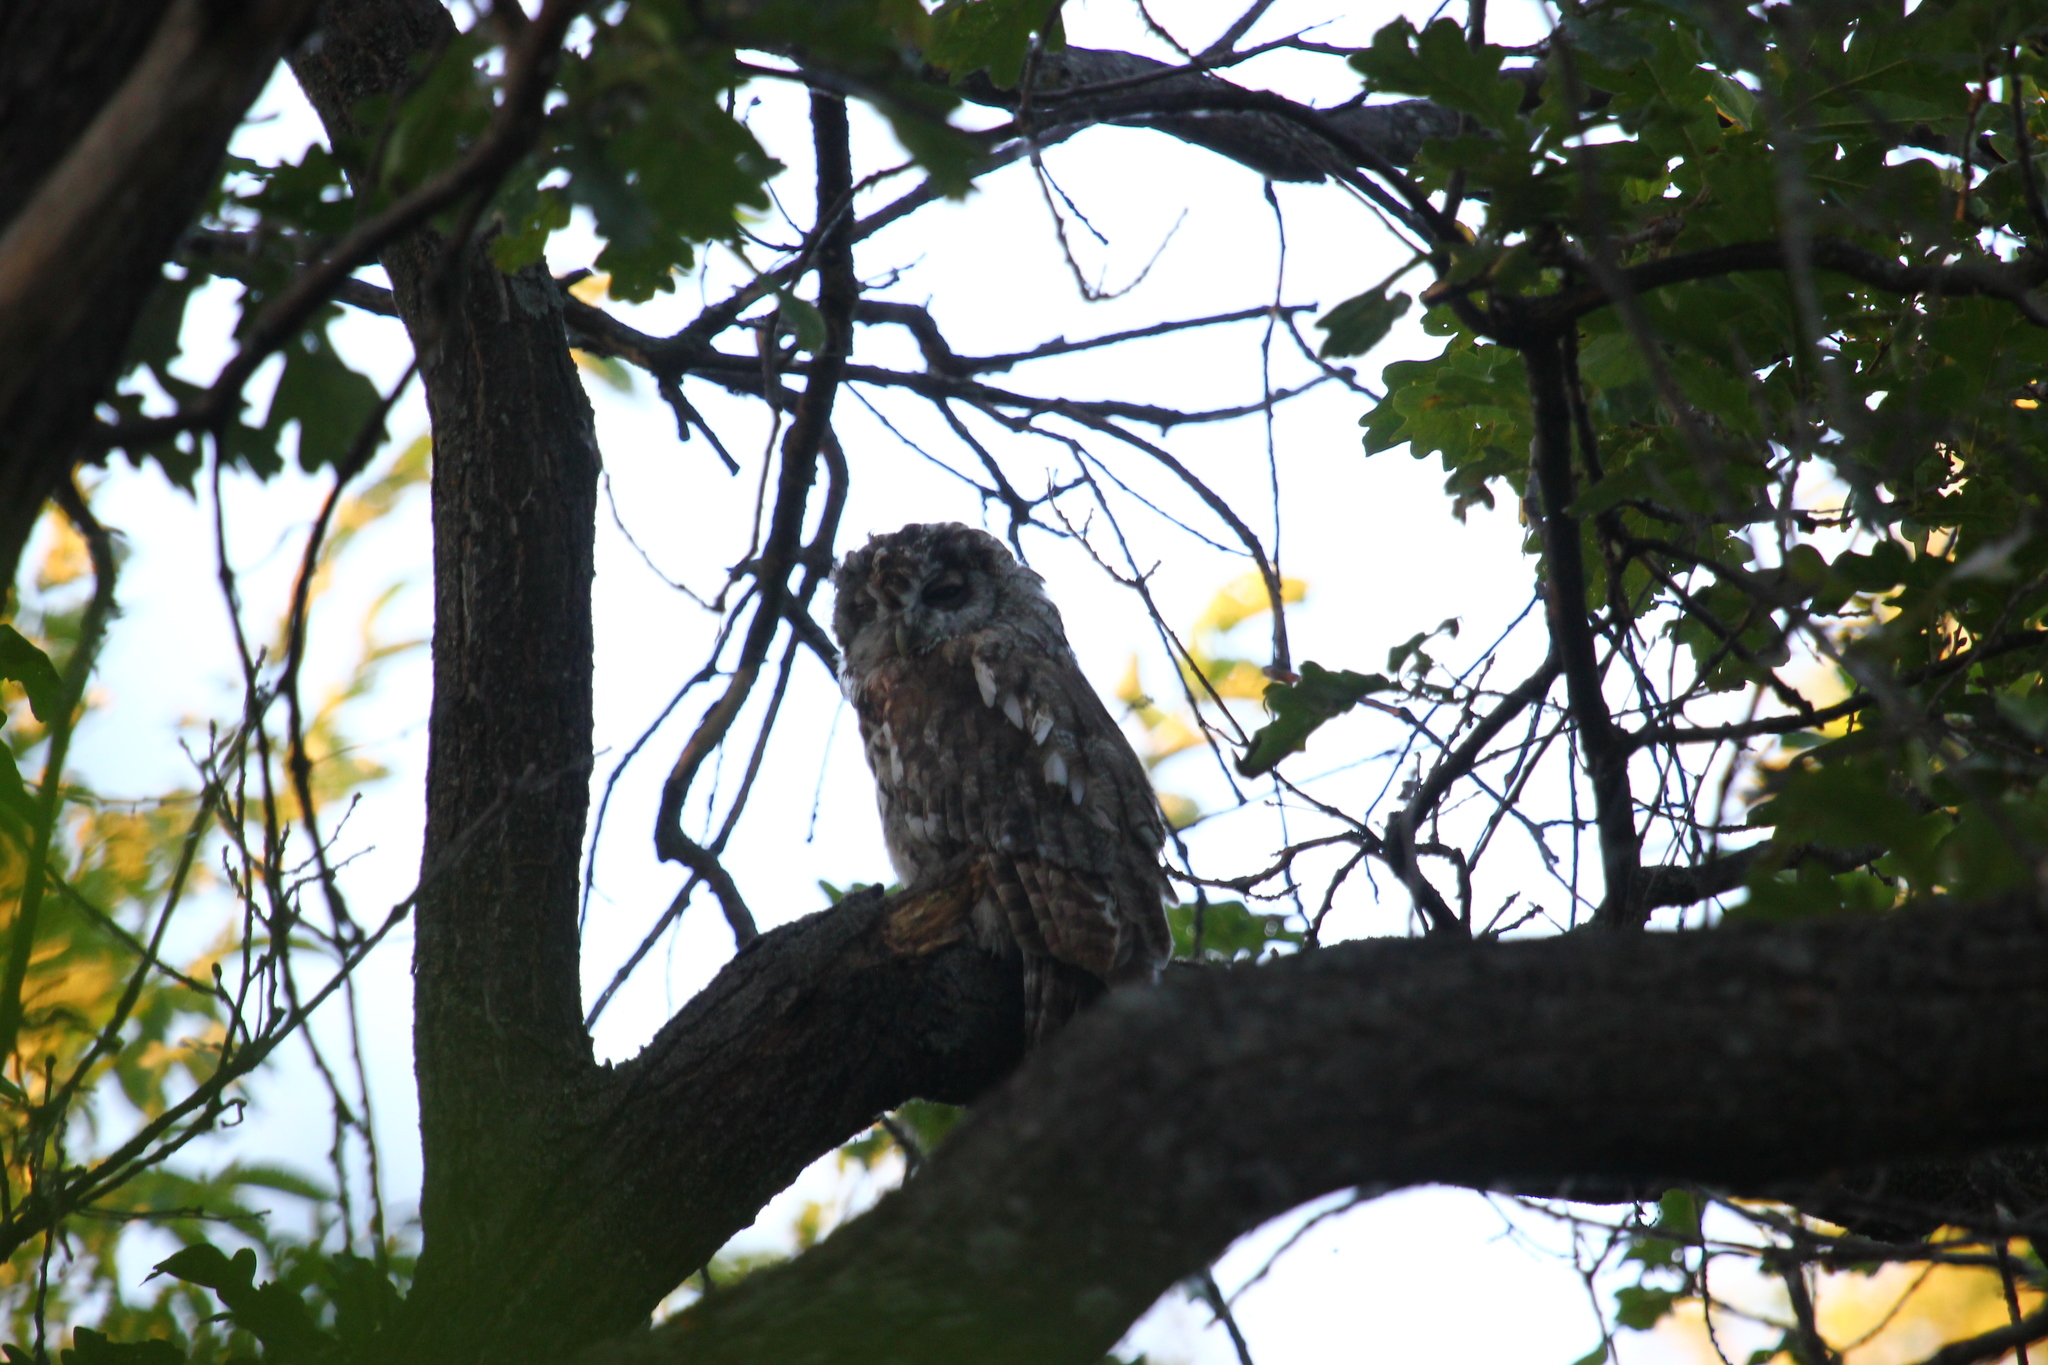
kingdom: Animalia
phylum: Chordata
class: Aves
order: Strigiformes
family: Strigidae
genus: Strix
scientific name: Strix aluco
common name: Tawny owl
